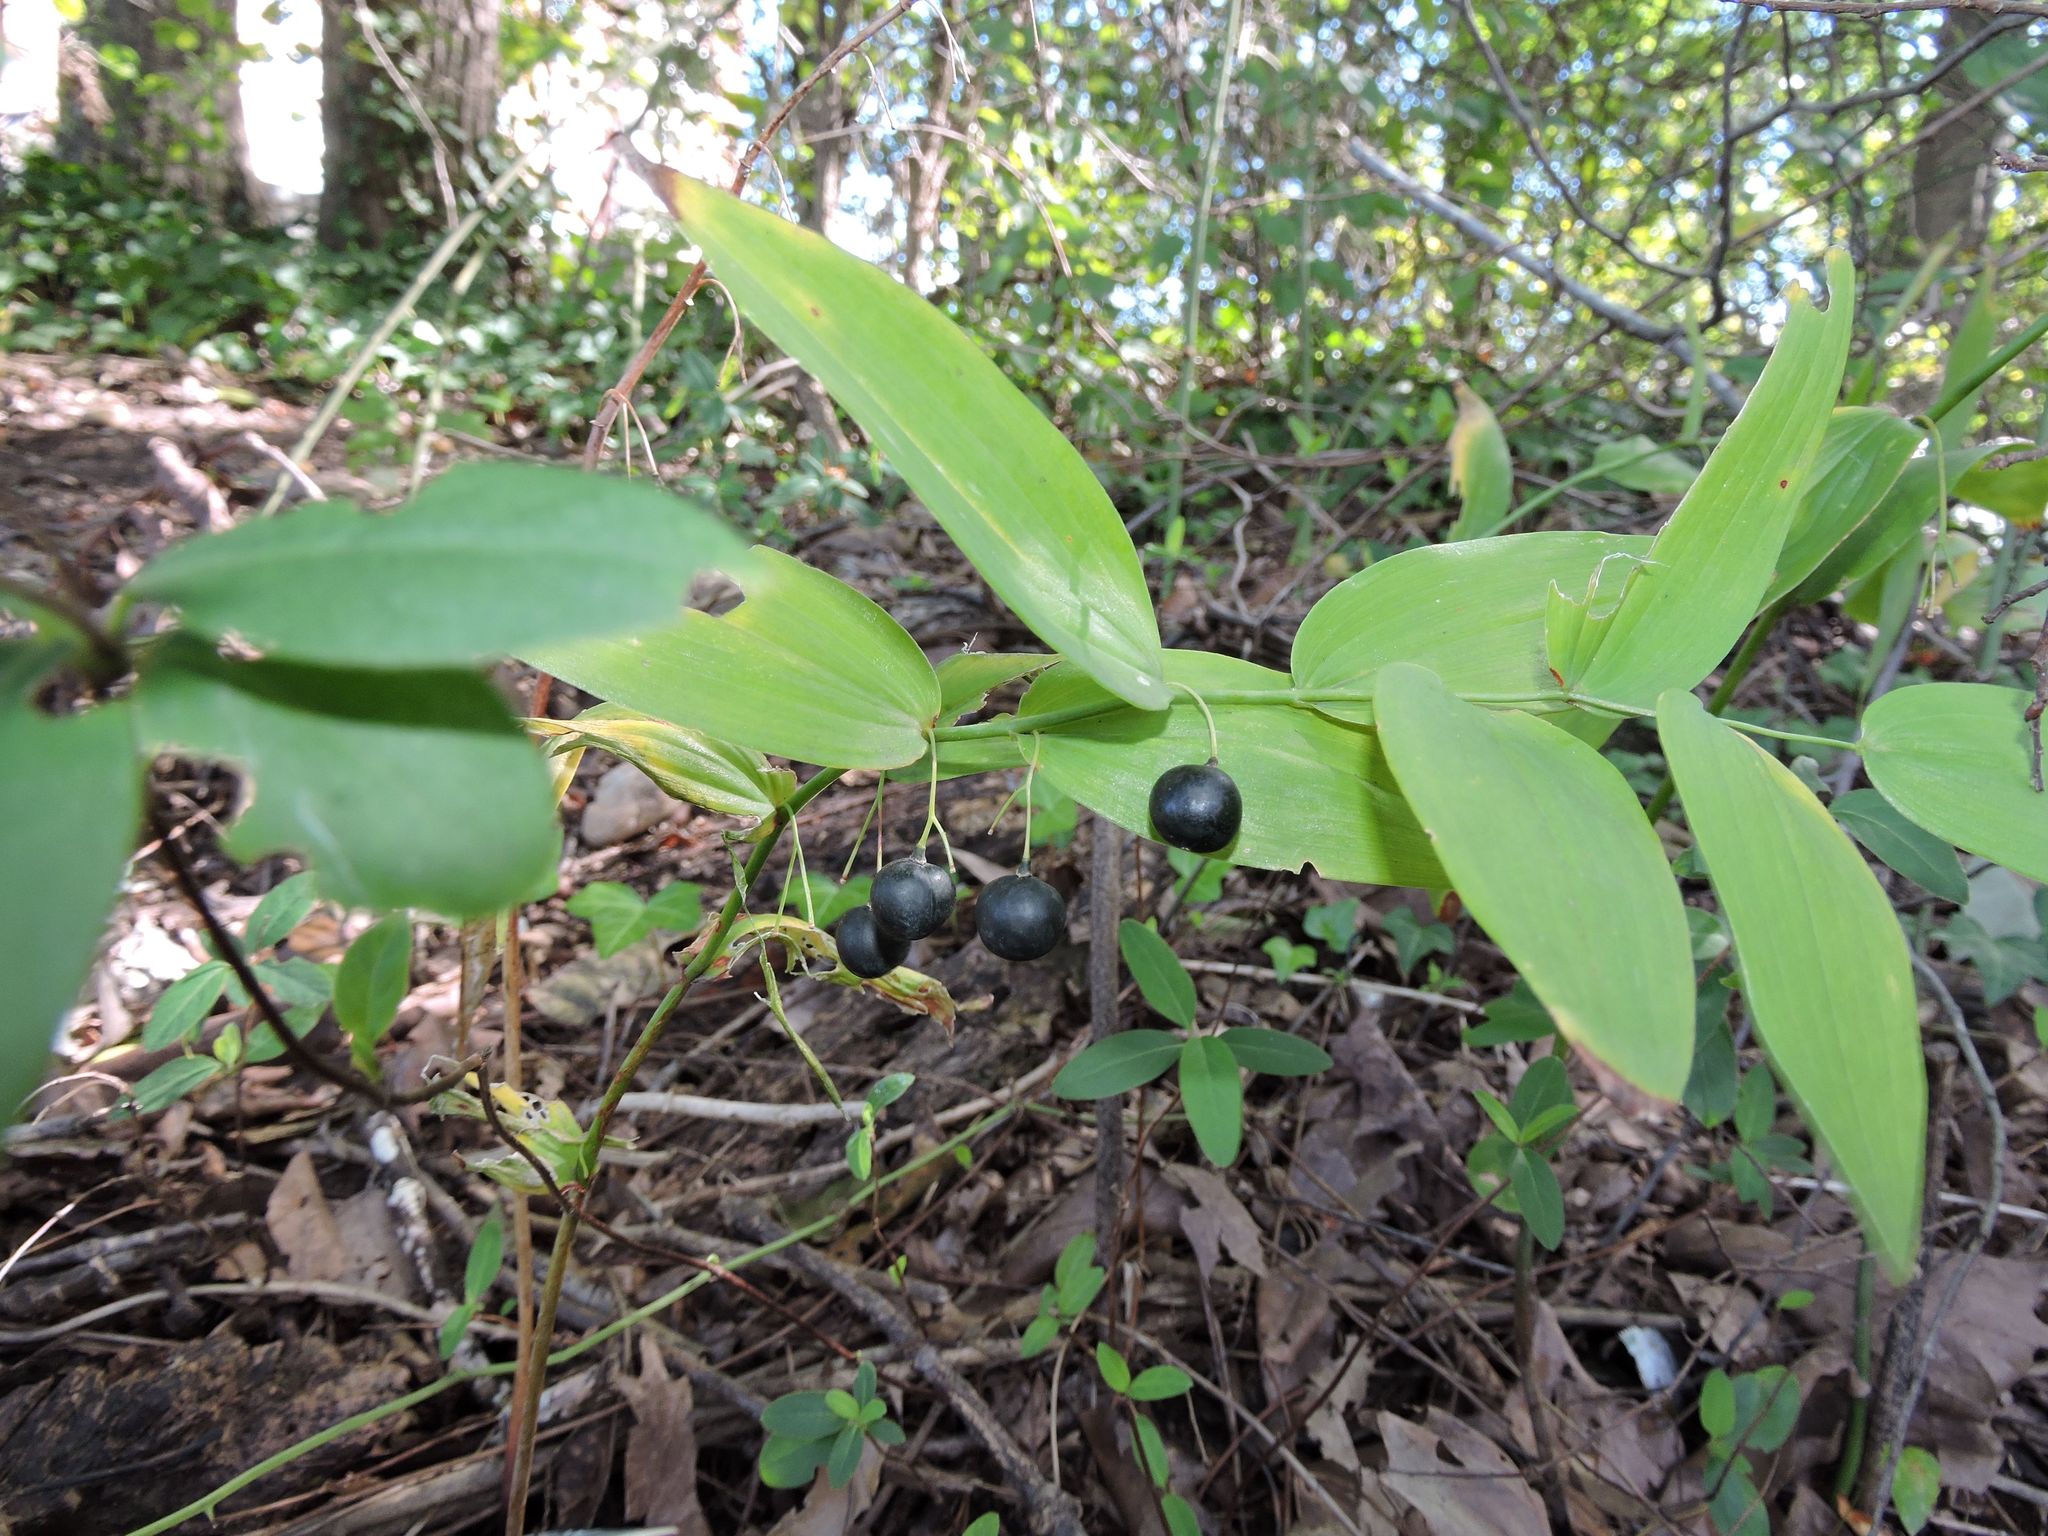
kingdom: Plantae
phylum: Tracheophyta
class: Liliopsida
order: Asparagales
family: Asparagaceae
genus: Polygonatum
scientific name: Polygonatum biflorum
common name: American solomon's-seal
